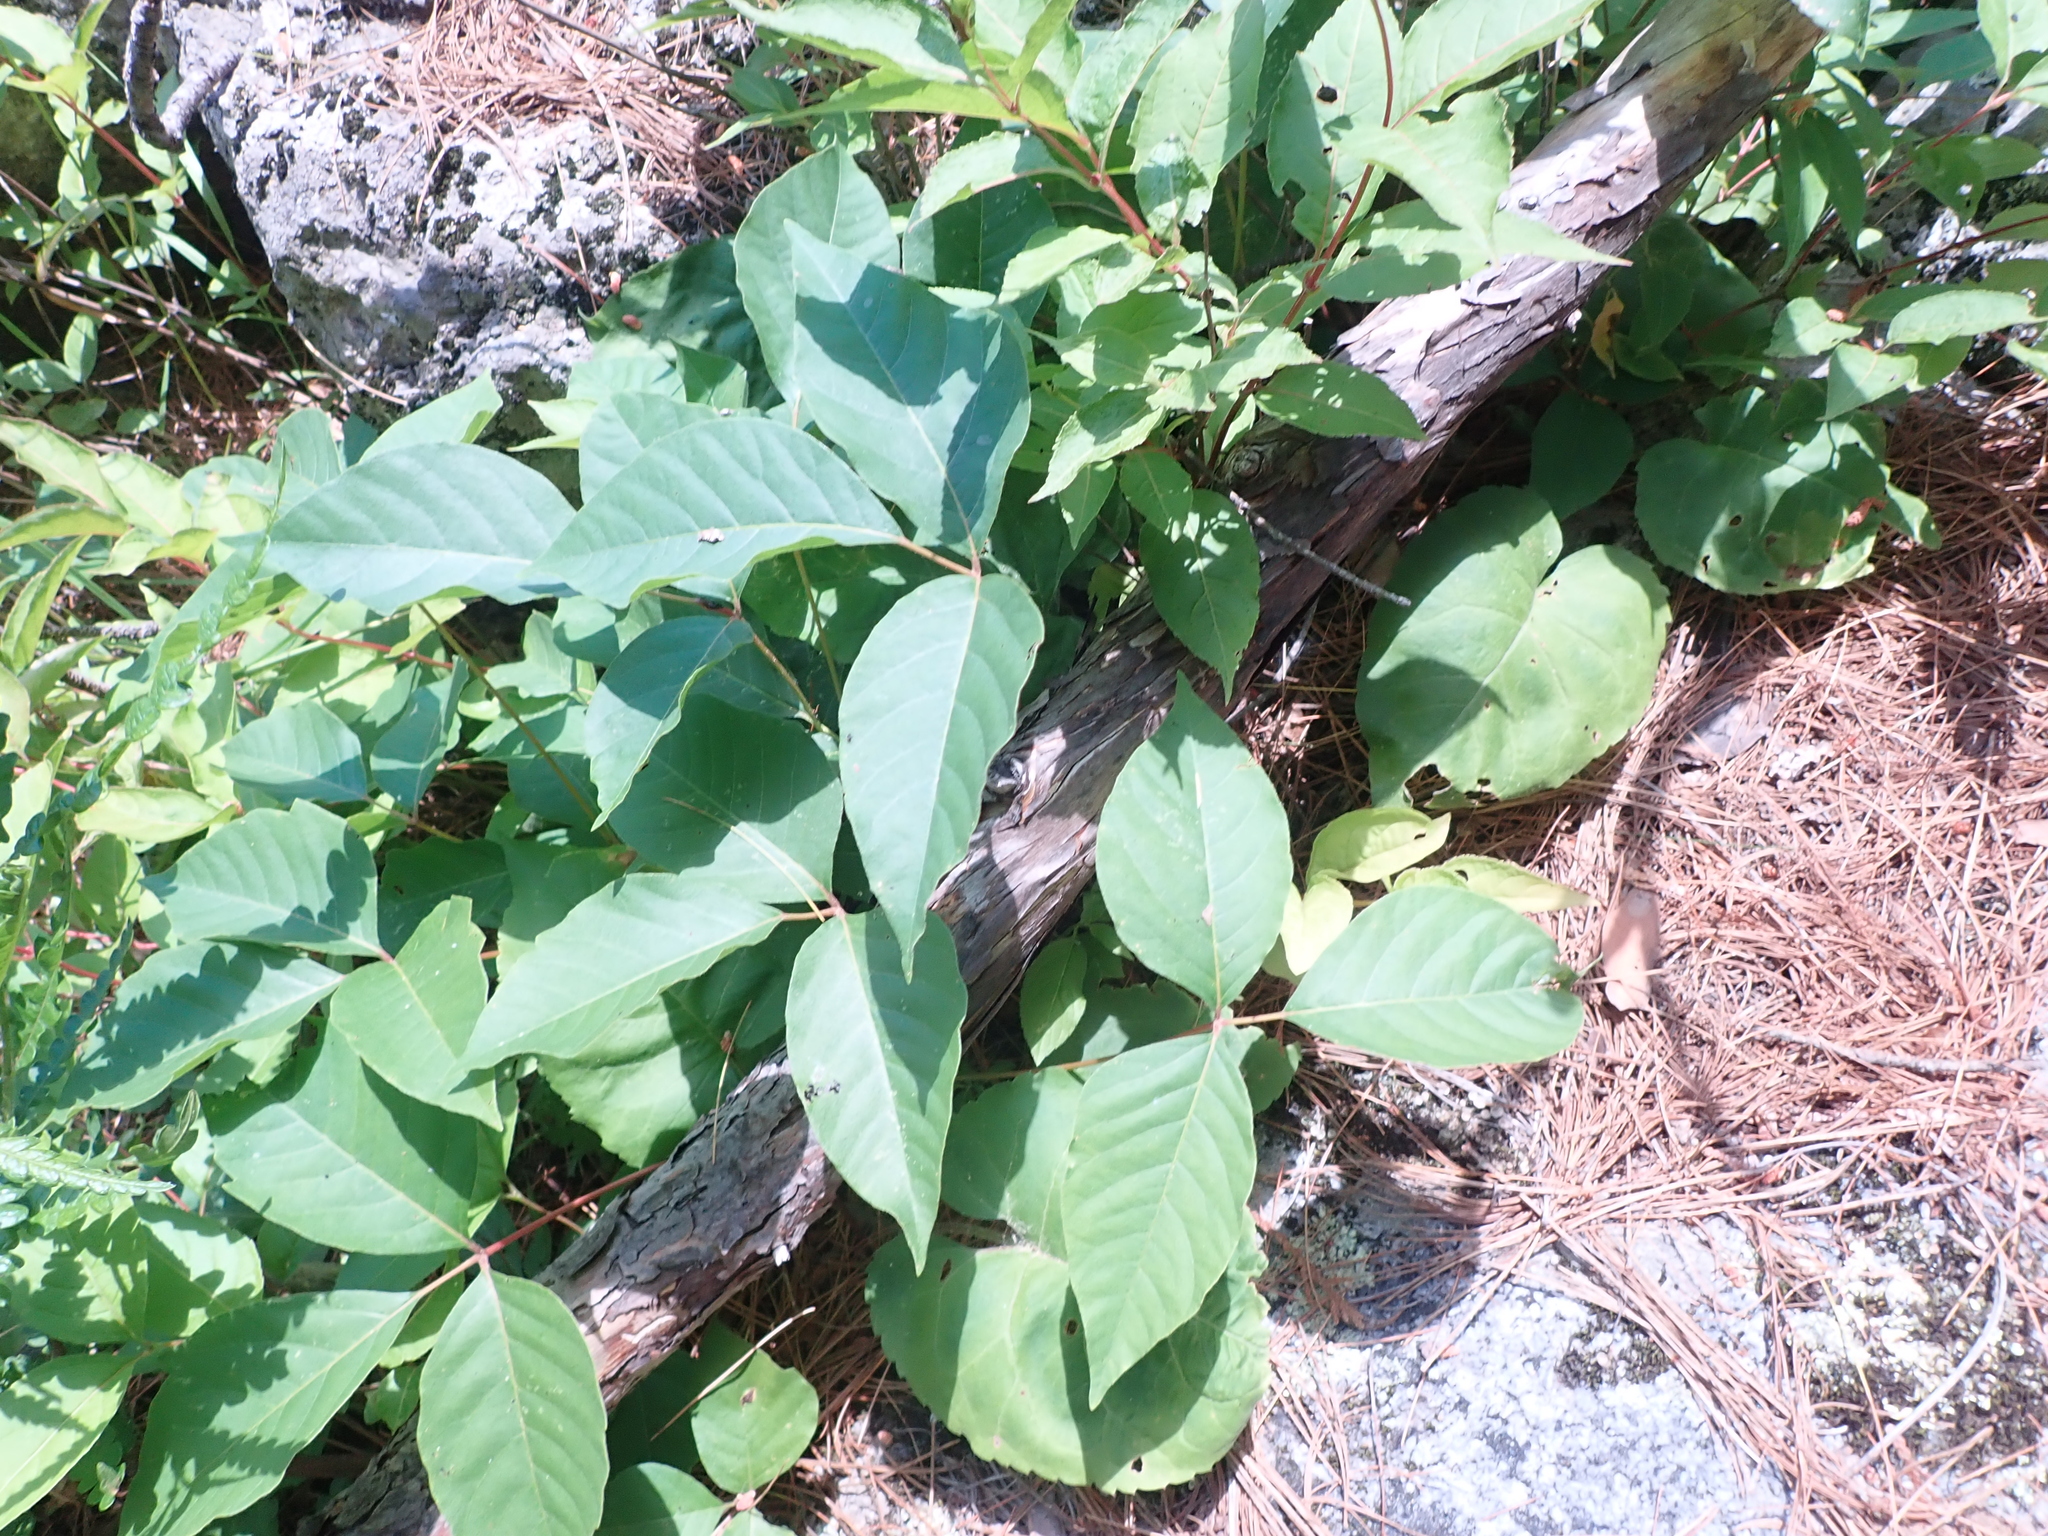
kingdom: Plantae
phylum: Tracheophyta
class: Magnoliopsida
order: Sapindales
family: Anacardiaceae
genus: Toxicodendron
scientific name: Toxicodendron radicans
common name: Poison ivy
